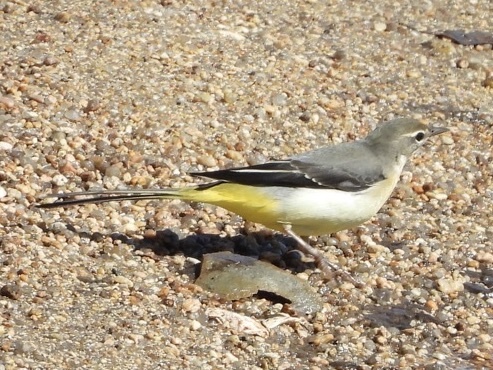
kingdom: Animalia
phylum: Chordata
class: Aves
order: Passeriformes
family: Motacillidae
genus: Motacilla
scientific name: Motacilla cinerea
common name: Grey wagtail
